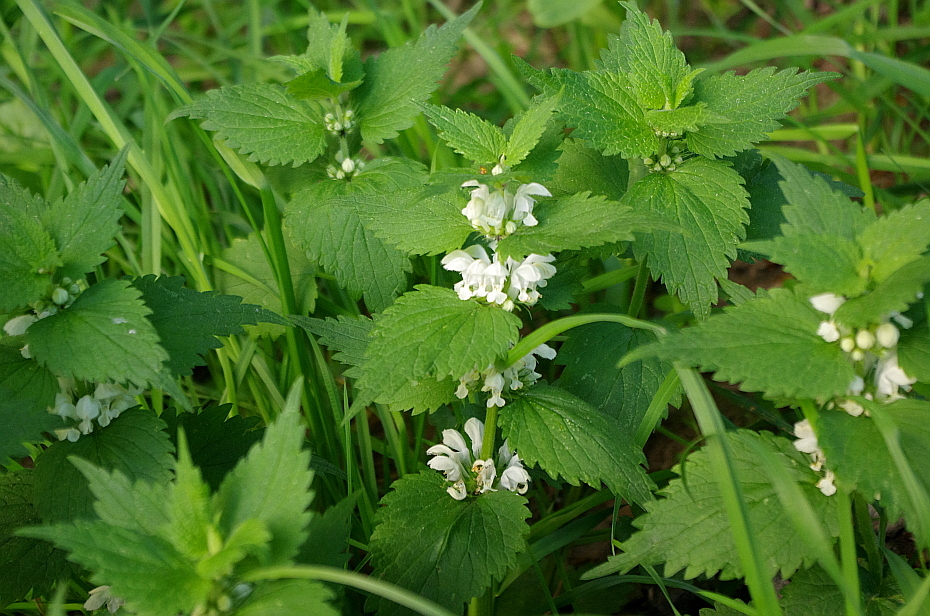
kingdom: Plantae
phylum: Tracheophyta
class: Magnoliopsida
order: Lamiales
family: Lamiaceae
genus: Lamium
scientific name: Lamium album
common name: White dead-nettle
